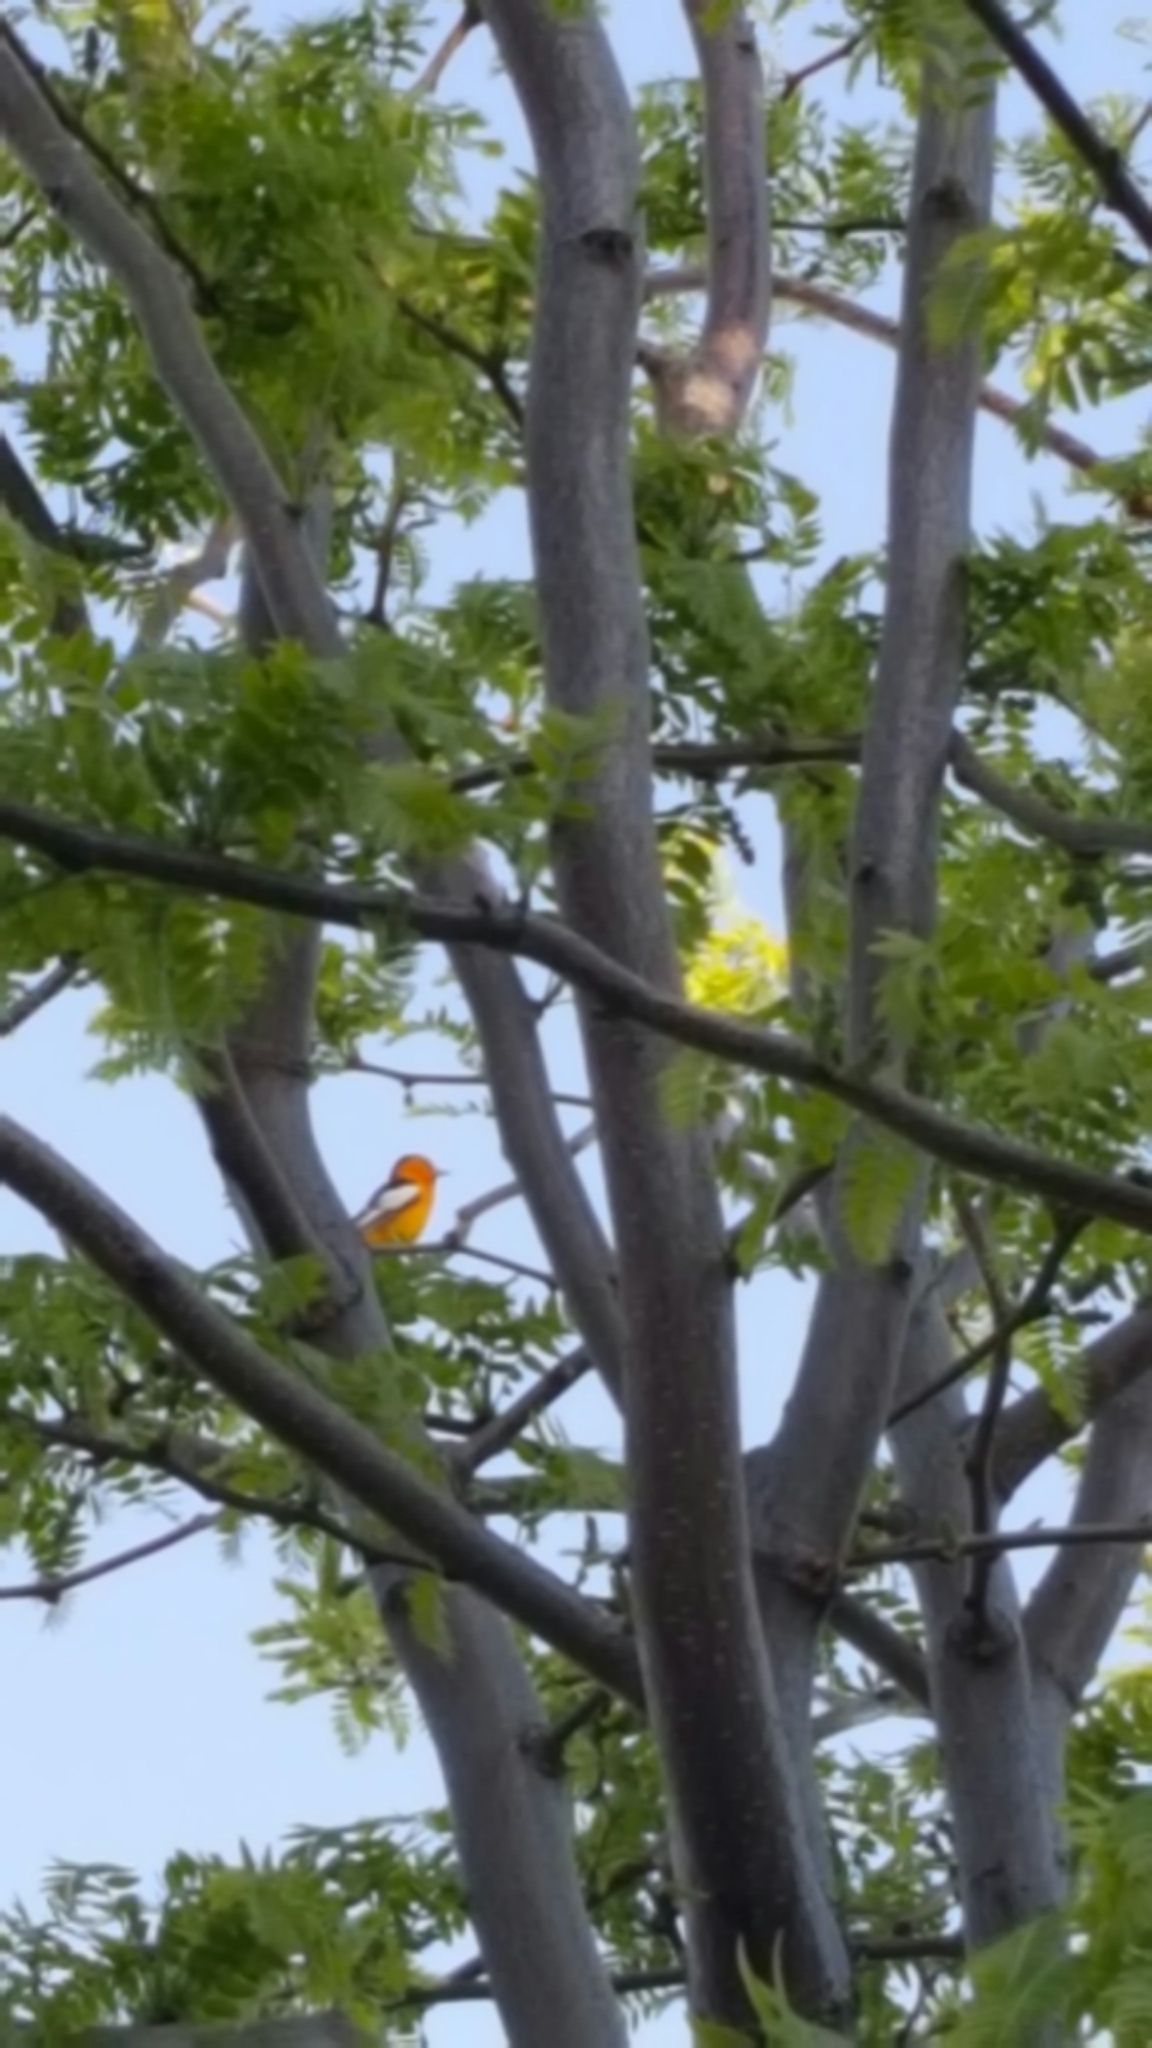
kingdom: Animalia
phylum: Chordata
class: Aves
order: Passeriformes
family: Icteridae
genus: Icterus
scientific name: Icterus bullockii
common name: Bullock's oriole
